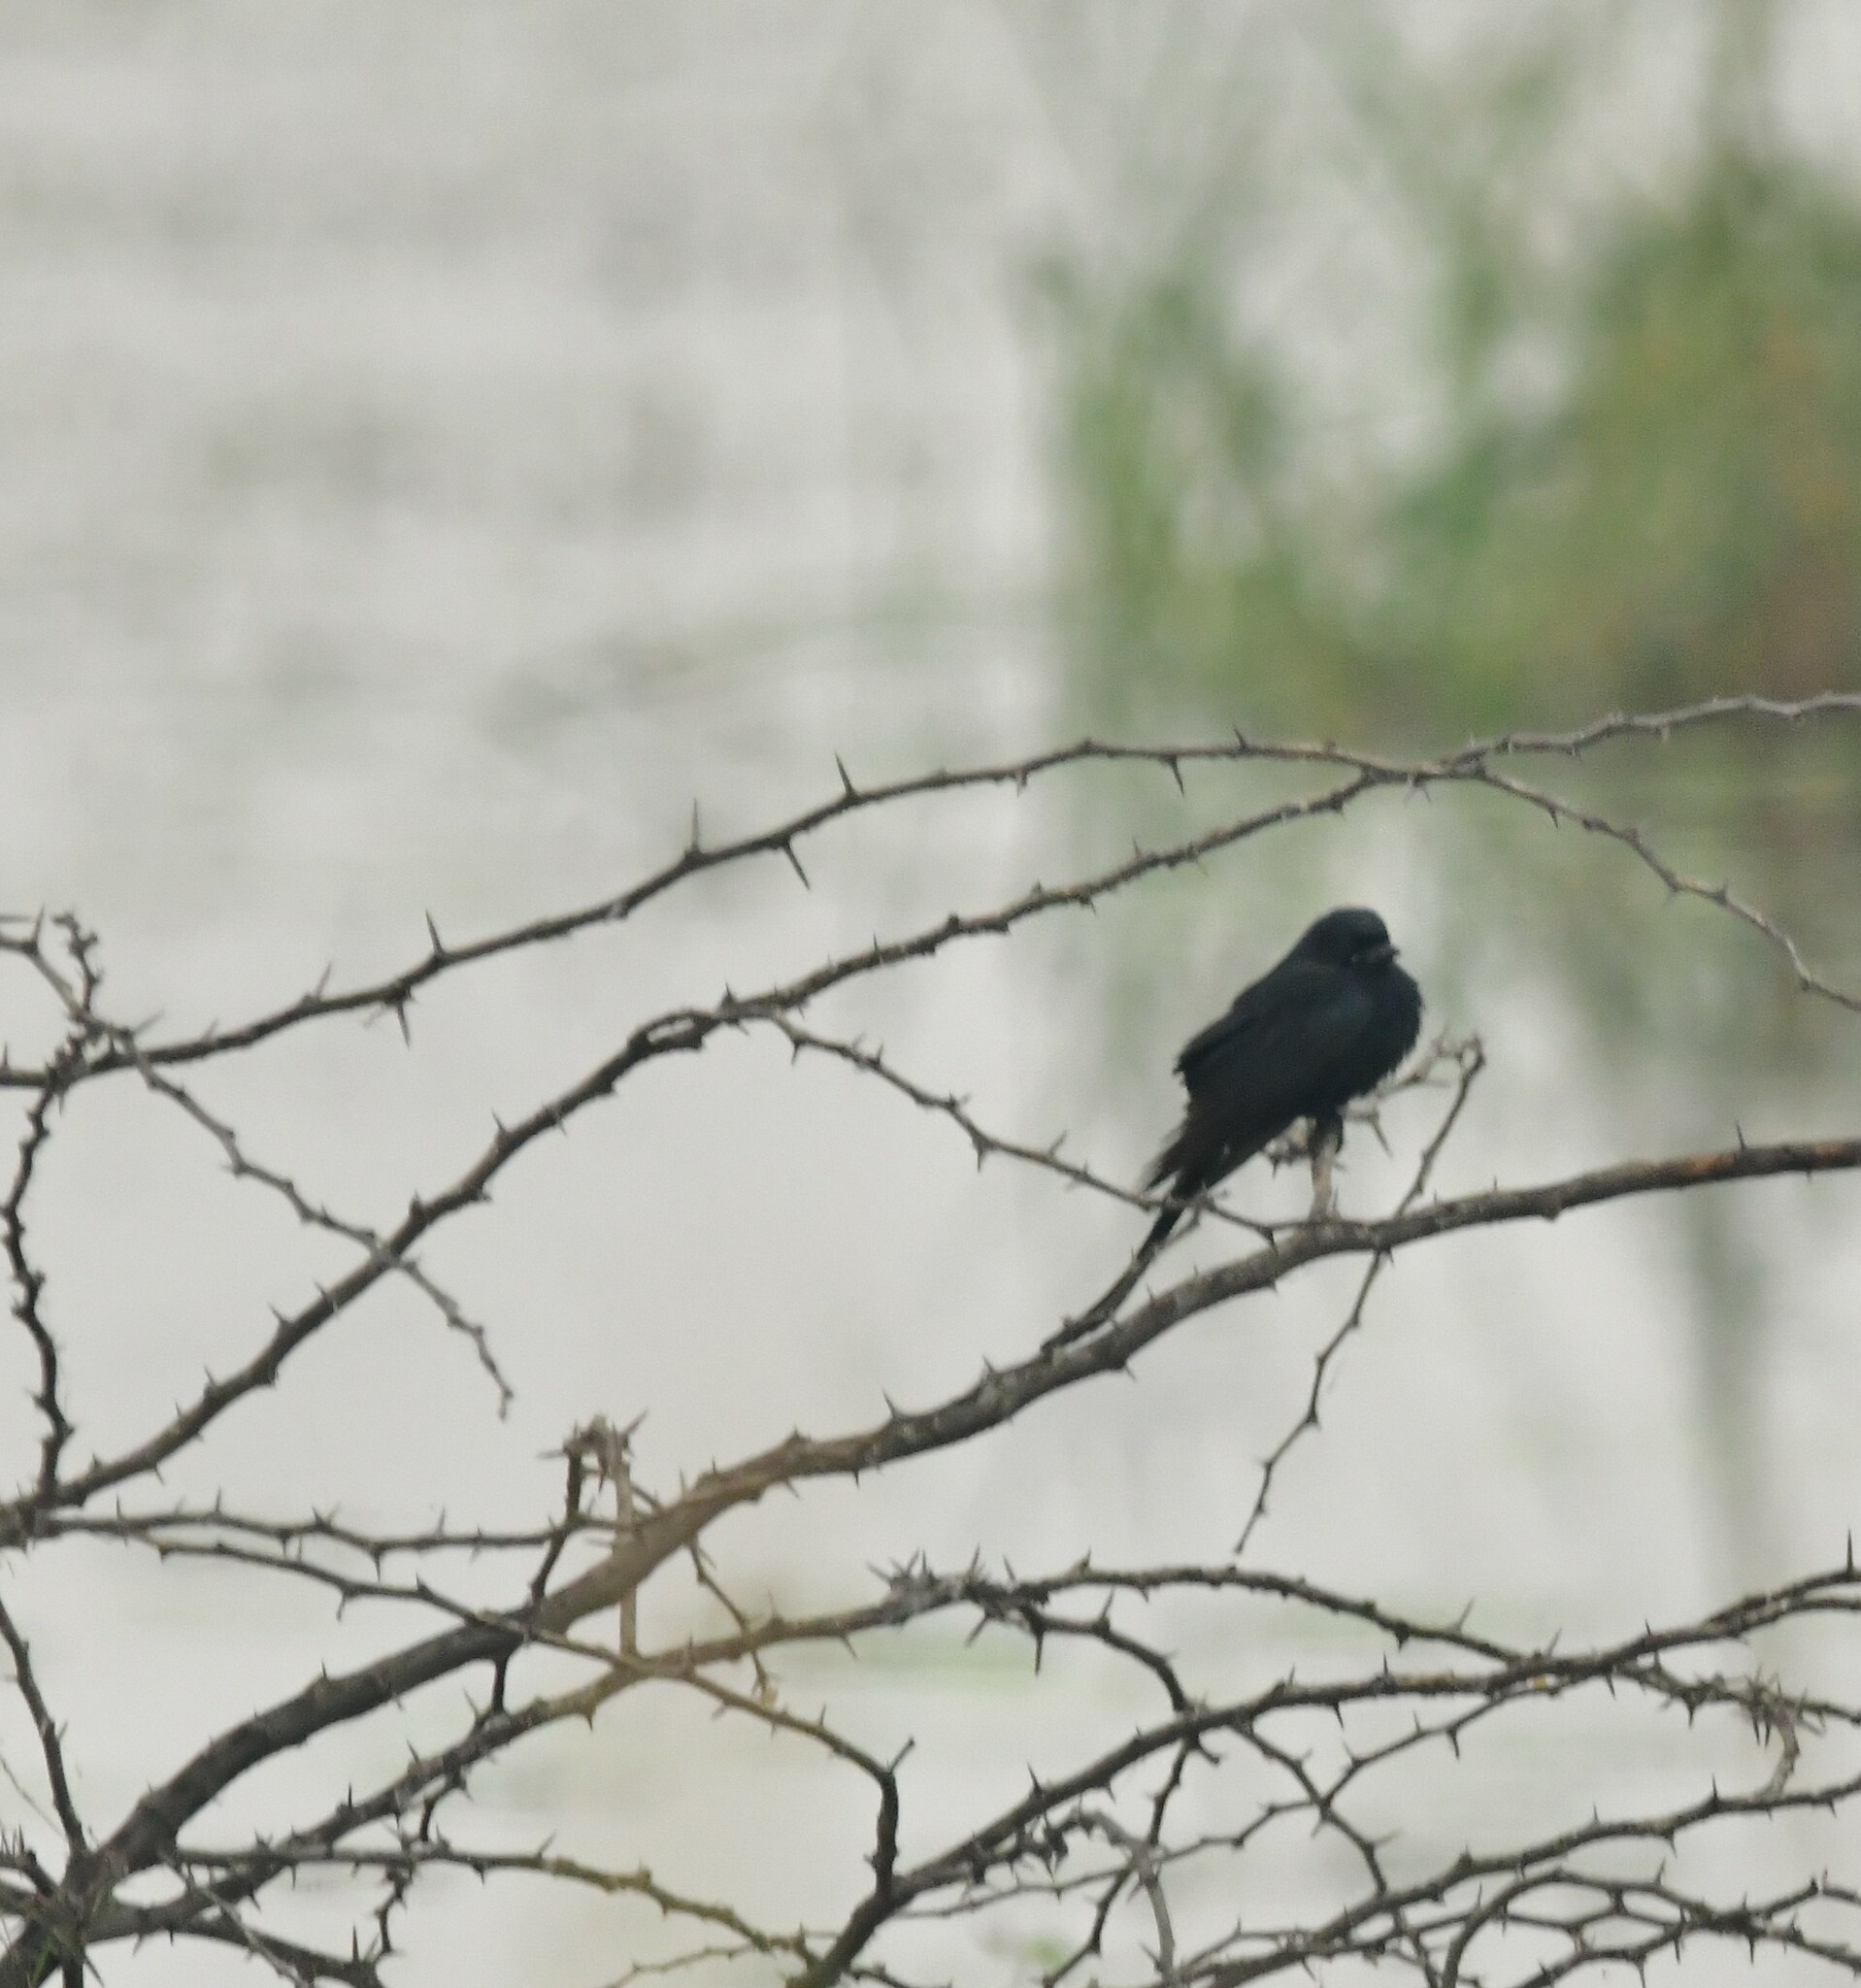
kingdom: Animalia
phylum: Chordata
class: Aves
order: Passeriformes
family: Dicruridae
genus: Dicrurus
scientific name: Dicrurus macrocercus
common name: Black drongo
